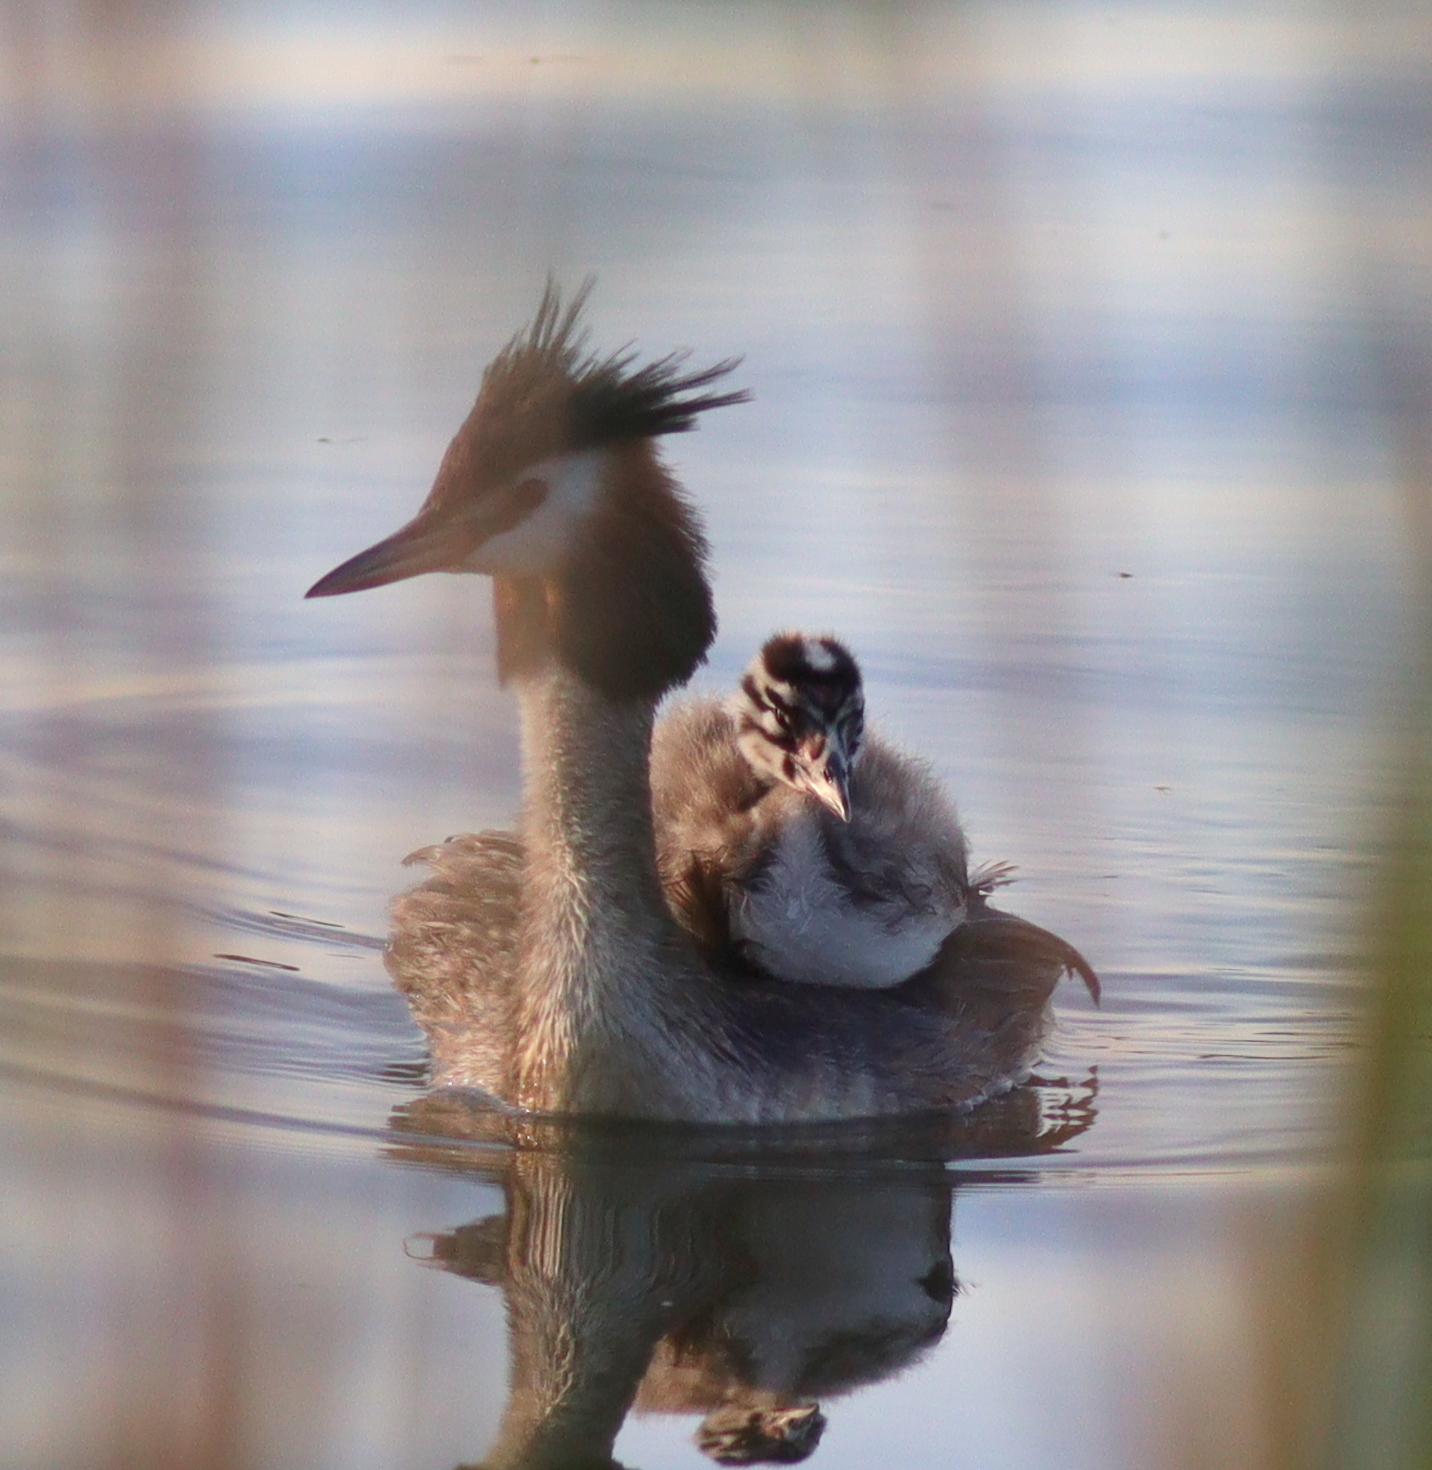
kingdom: Animalia
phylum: Chordata
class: Aves
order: Podicipediformes
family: Podicipedidae
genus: Podiceps
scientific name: Podiceps cristatus
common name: Great crested grebe
